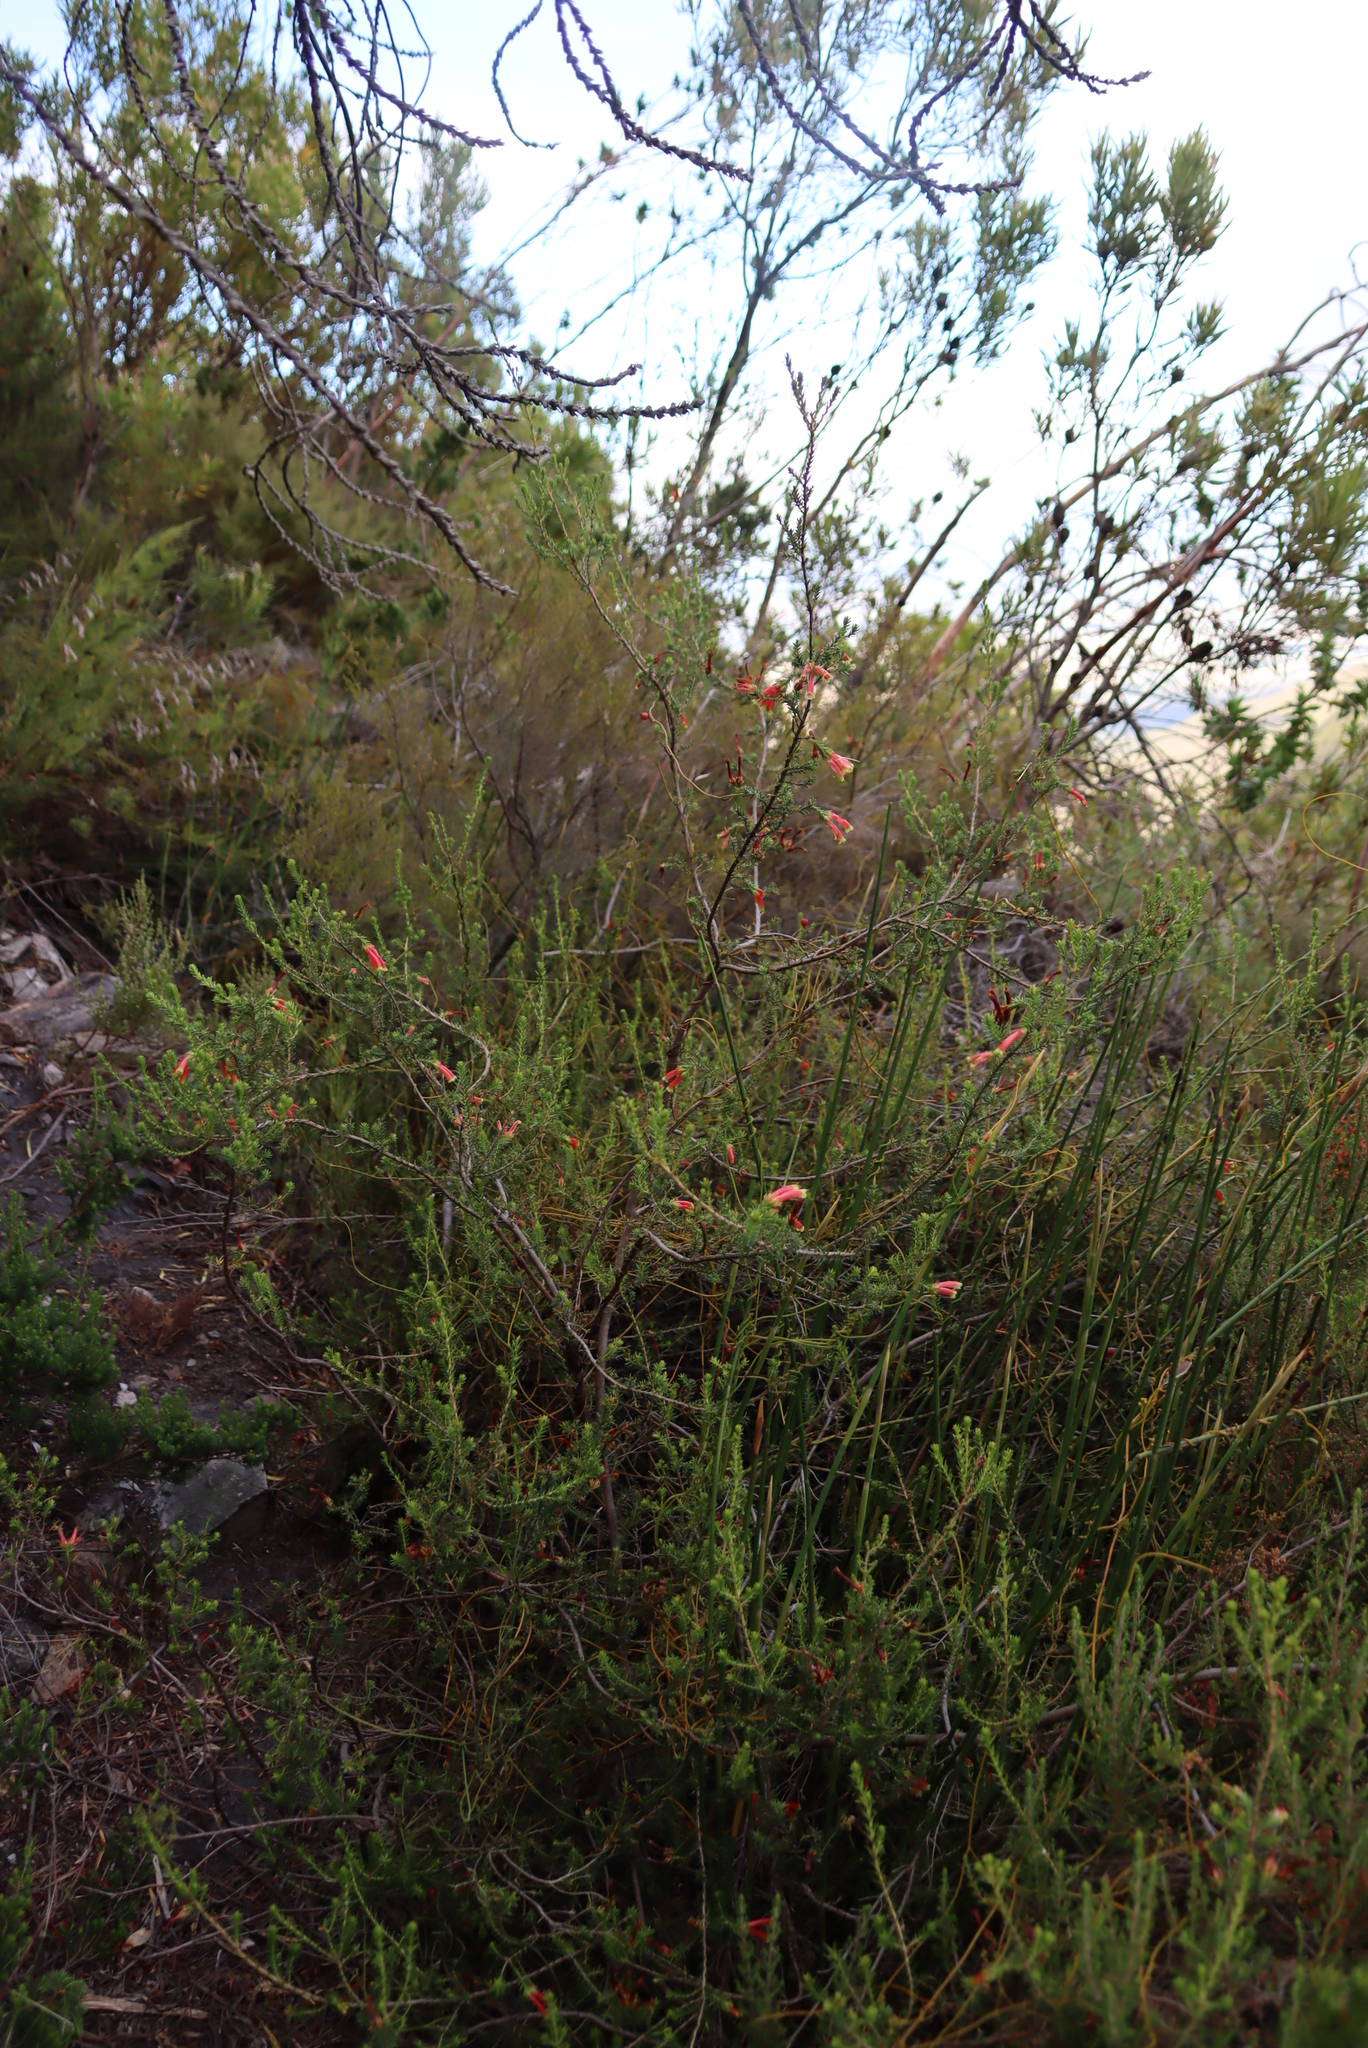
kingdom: Plantae
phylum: Tracheophyta
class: Magnoliopsida
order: Ericales
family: Ericaceae
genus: Erica
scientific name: Erica versicolor
